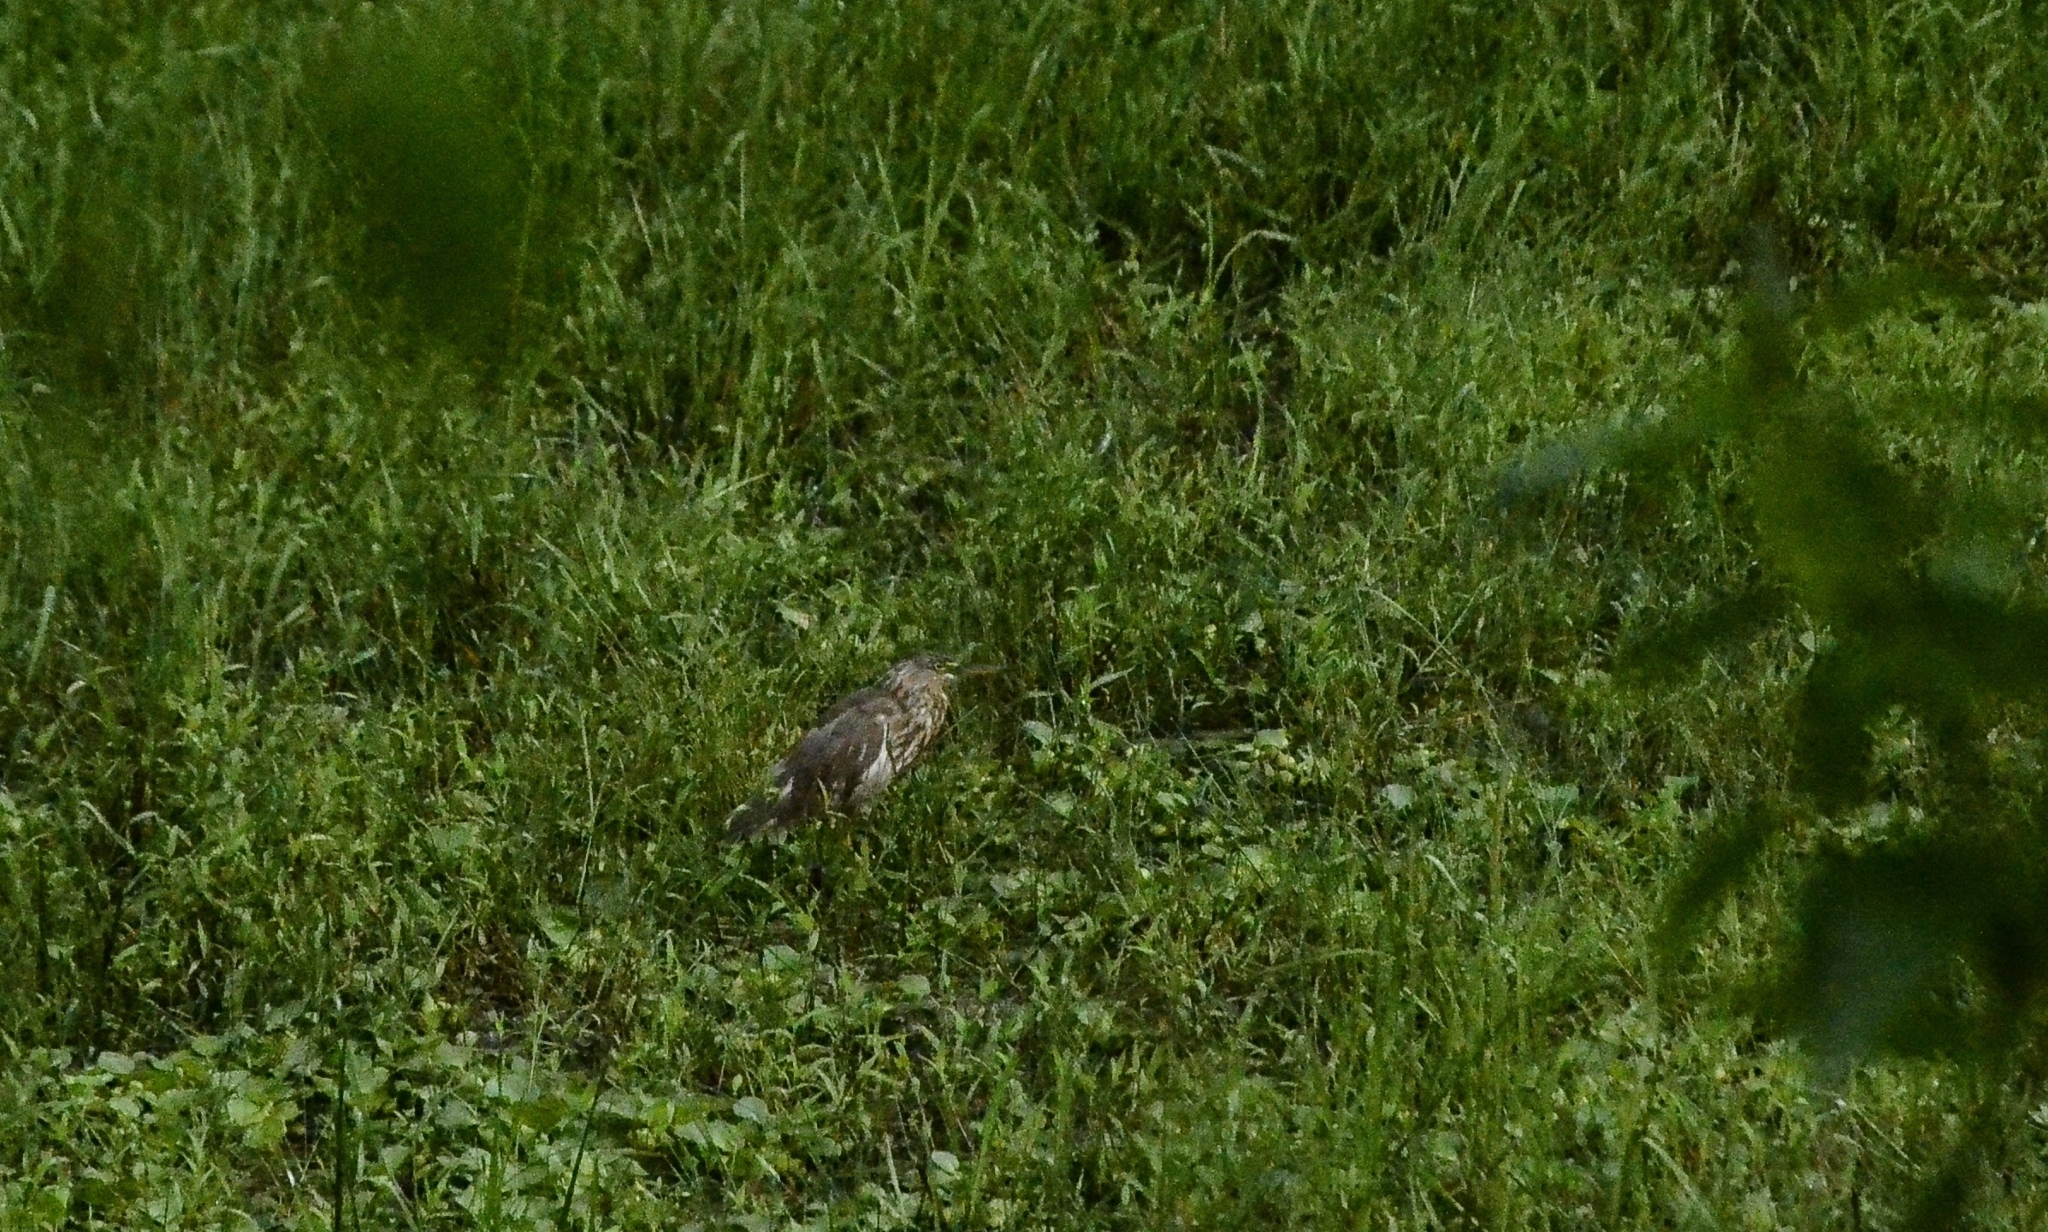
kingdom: Animalia
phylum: Chordata
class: Aves
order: Pelecaniformes
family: Ardeidae
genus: Ardeola
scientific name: Ardeola grayii
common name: Indian pond heron
